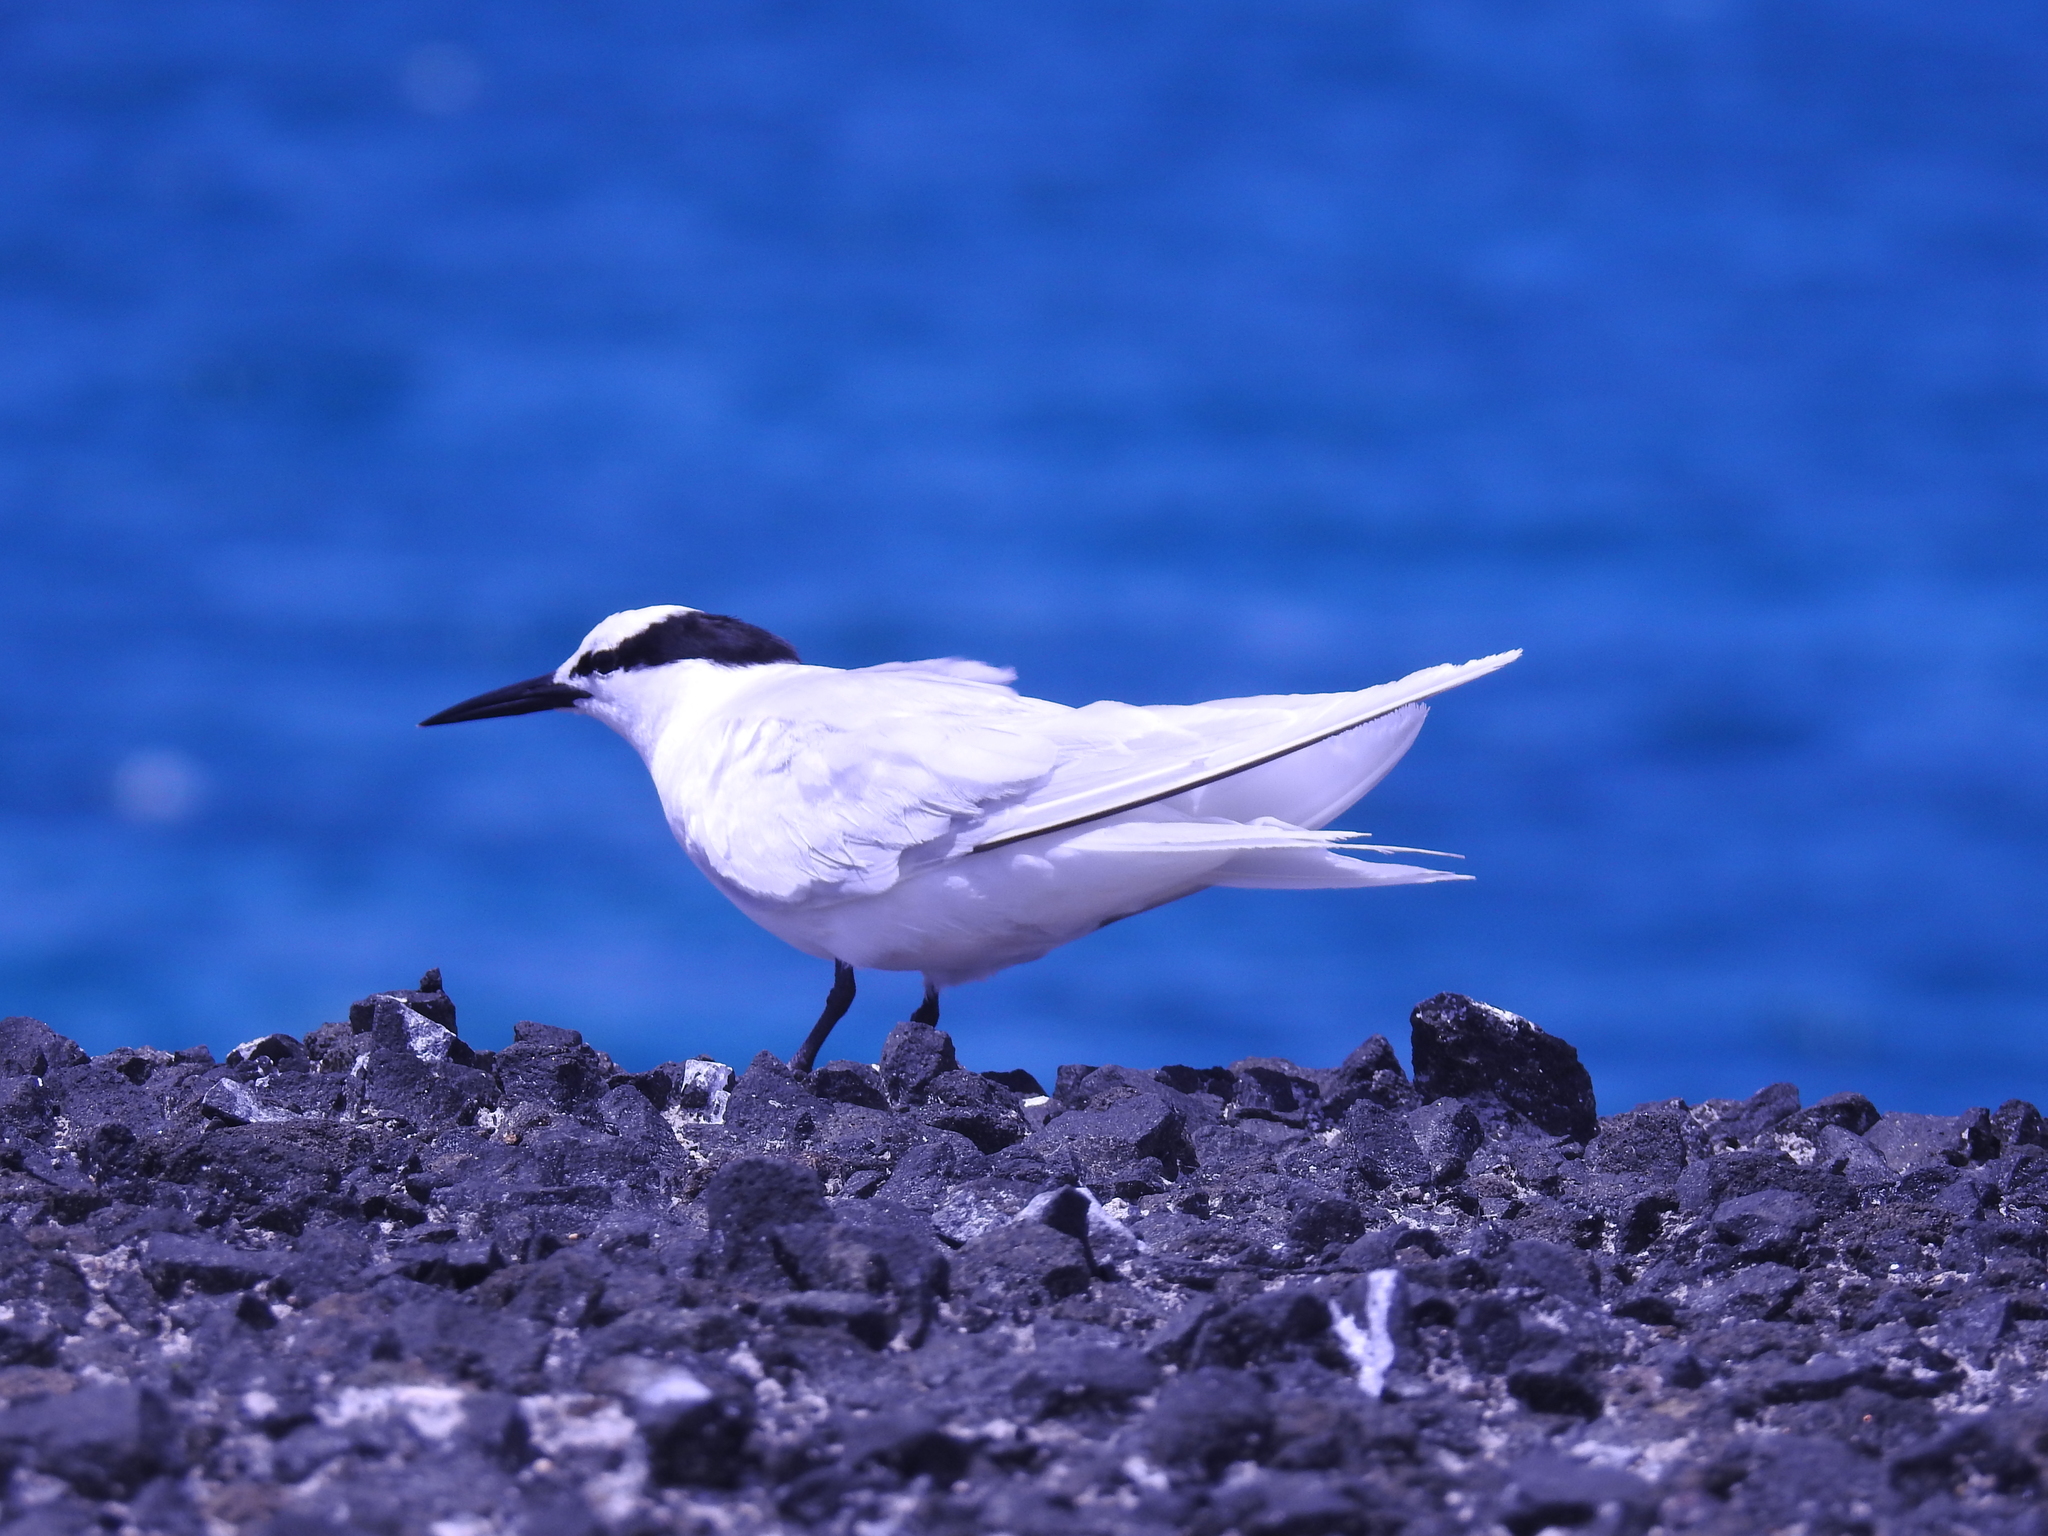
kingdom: Animalia
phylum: Chordata
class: Aves
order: Charadriiformes
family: Laridae
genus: Sterna
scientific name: Sterna sumatrana
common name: Black-naped tern
